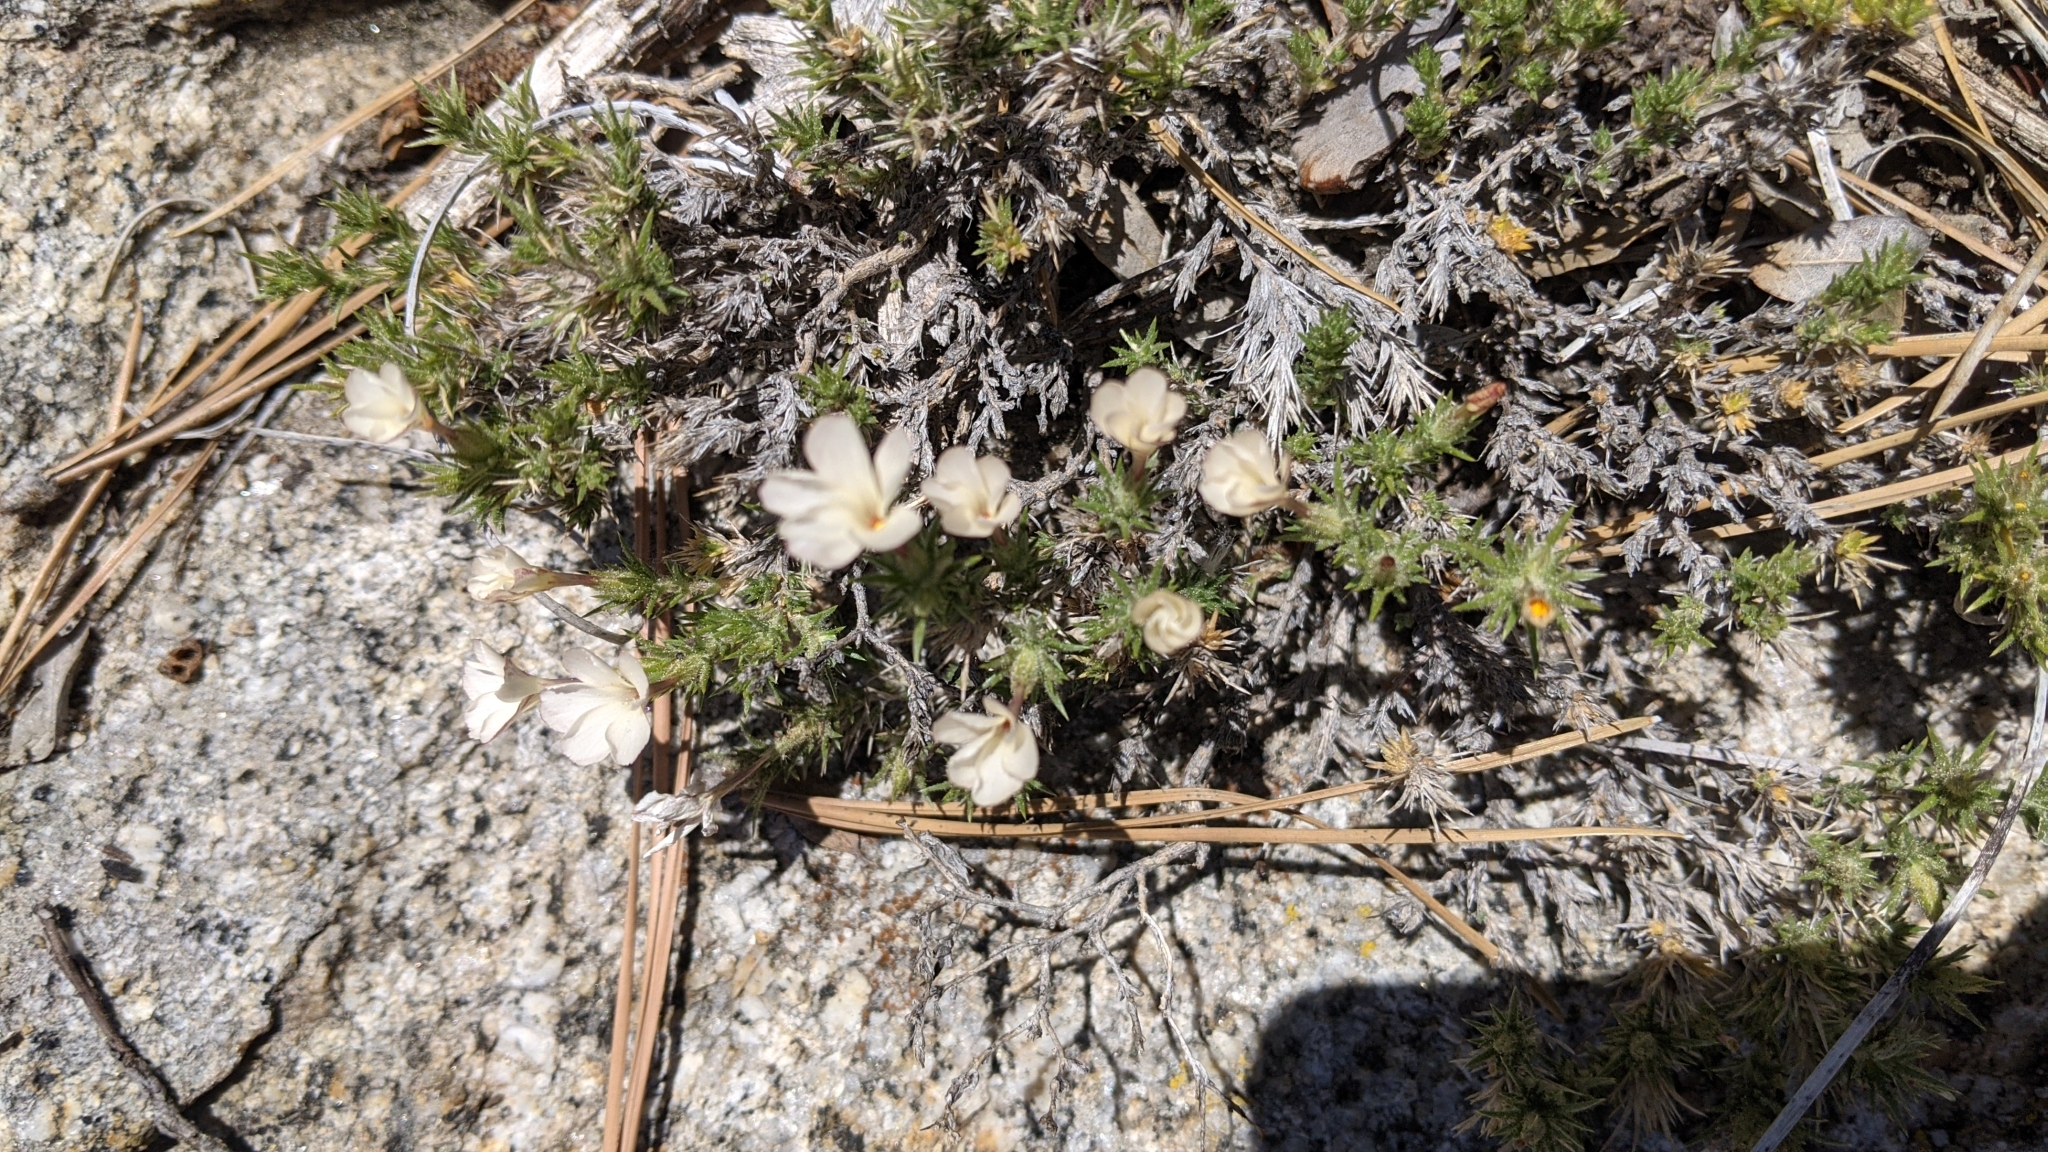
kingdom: Plantae
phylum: Tracheophyta
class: Magnoliopsida
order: Ericales
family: Polemoniaceae
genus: Linanthus
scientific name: Linanthus pungens
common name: Granite prickly phlox
